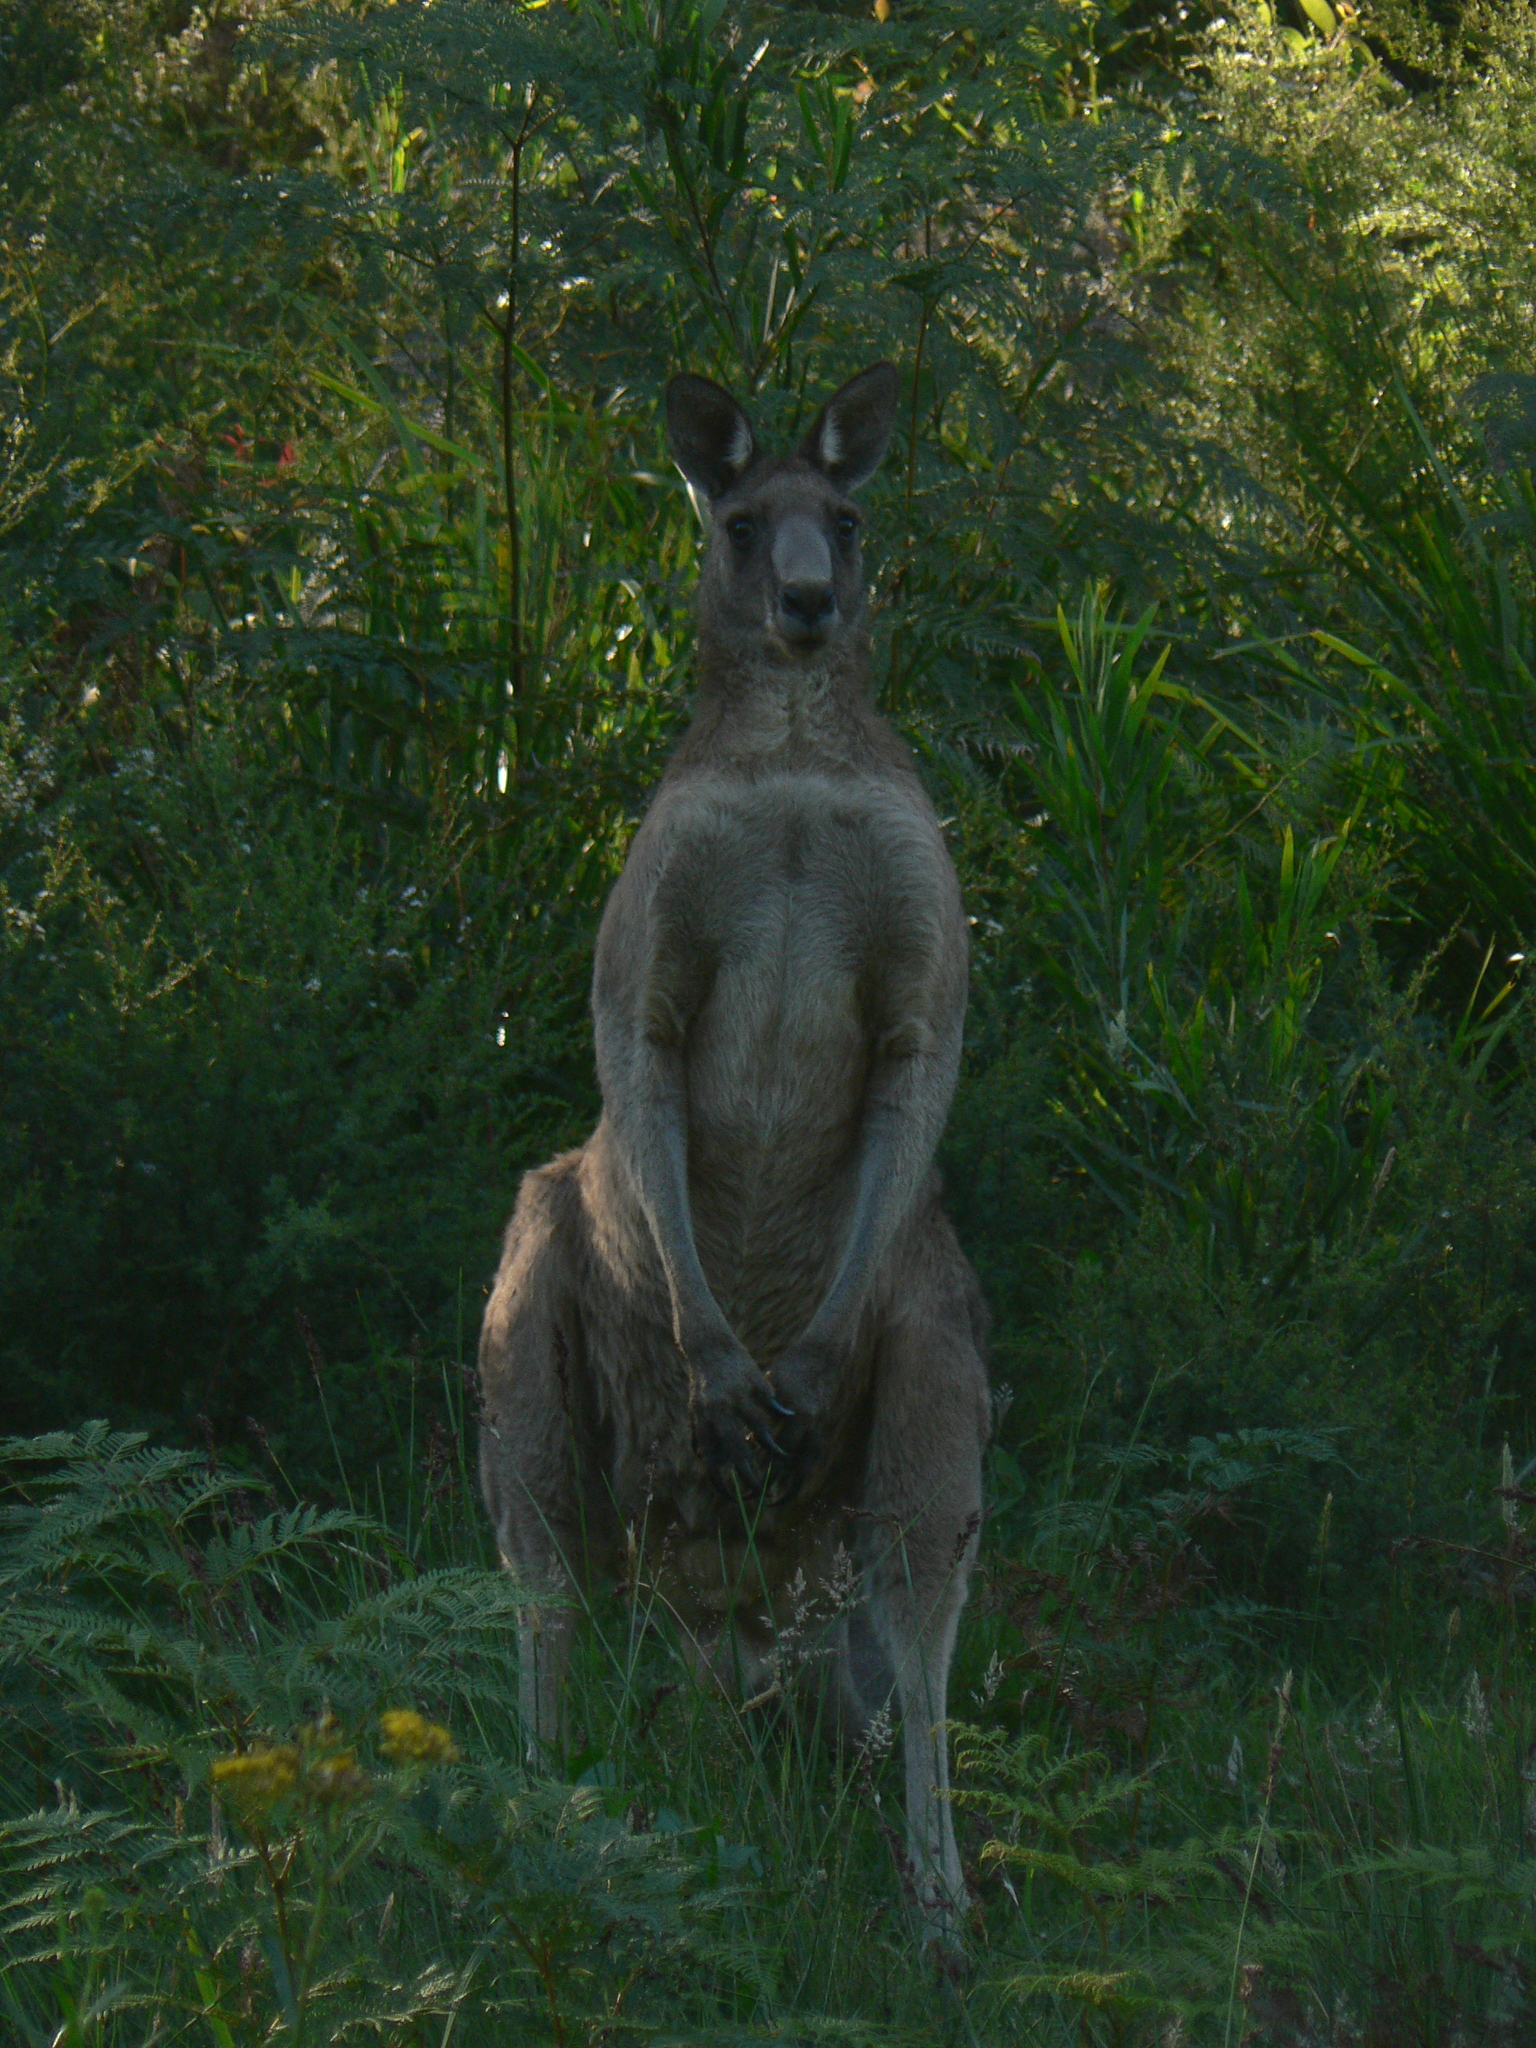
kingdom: Animalia
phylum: Chordata
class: Mammalia
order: Diprotodontia
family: Macropodidae
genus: Macropus
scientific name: Macropus giganteus
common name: Eastern grey kangaroo
